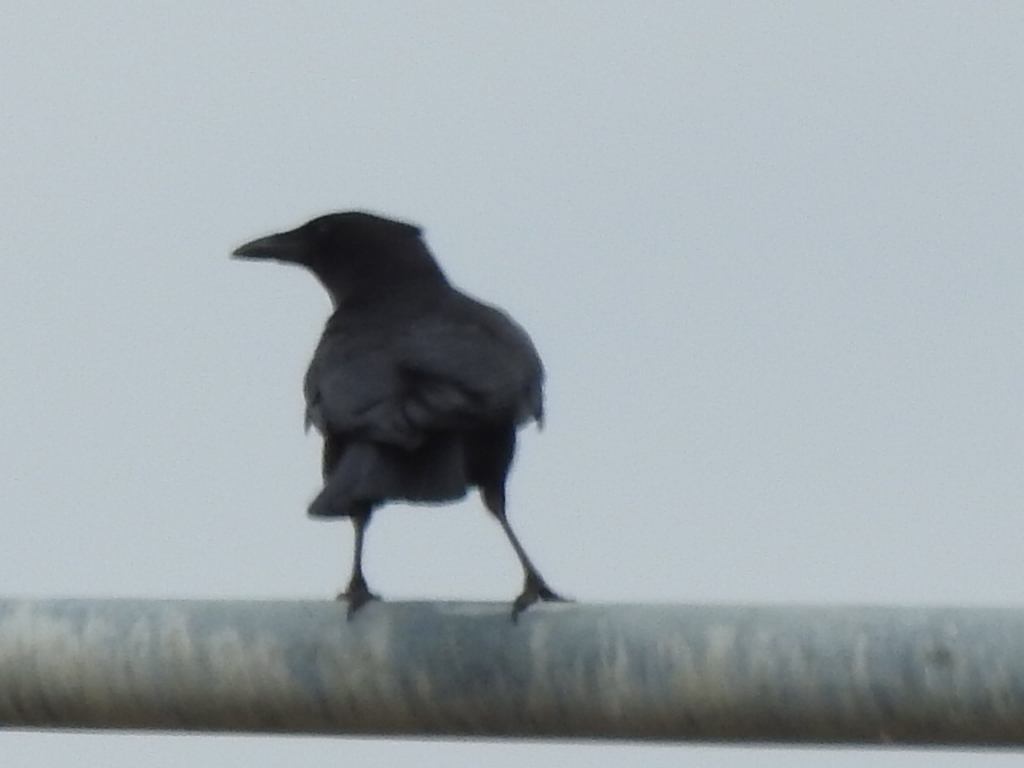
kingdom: Animalia
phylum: Chordata
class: Aves
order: Passeriformes
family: Corvidae
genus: Corvus
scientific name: Corvus brachyrhynchos
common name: American crow
